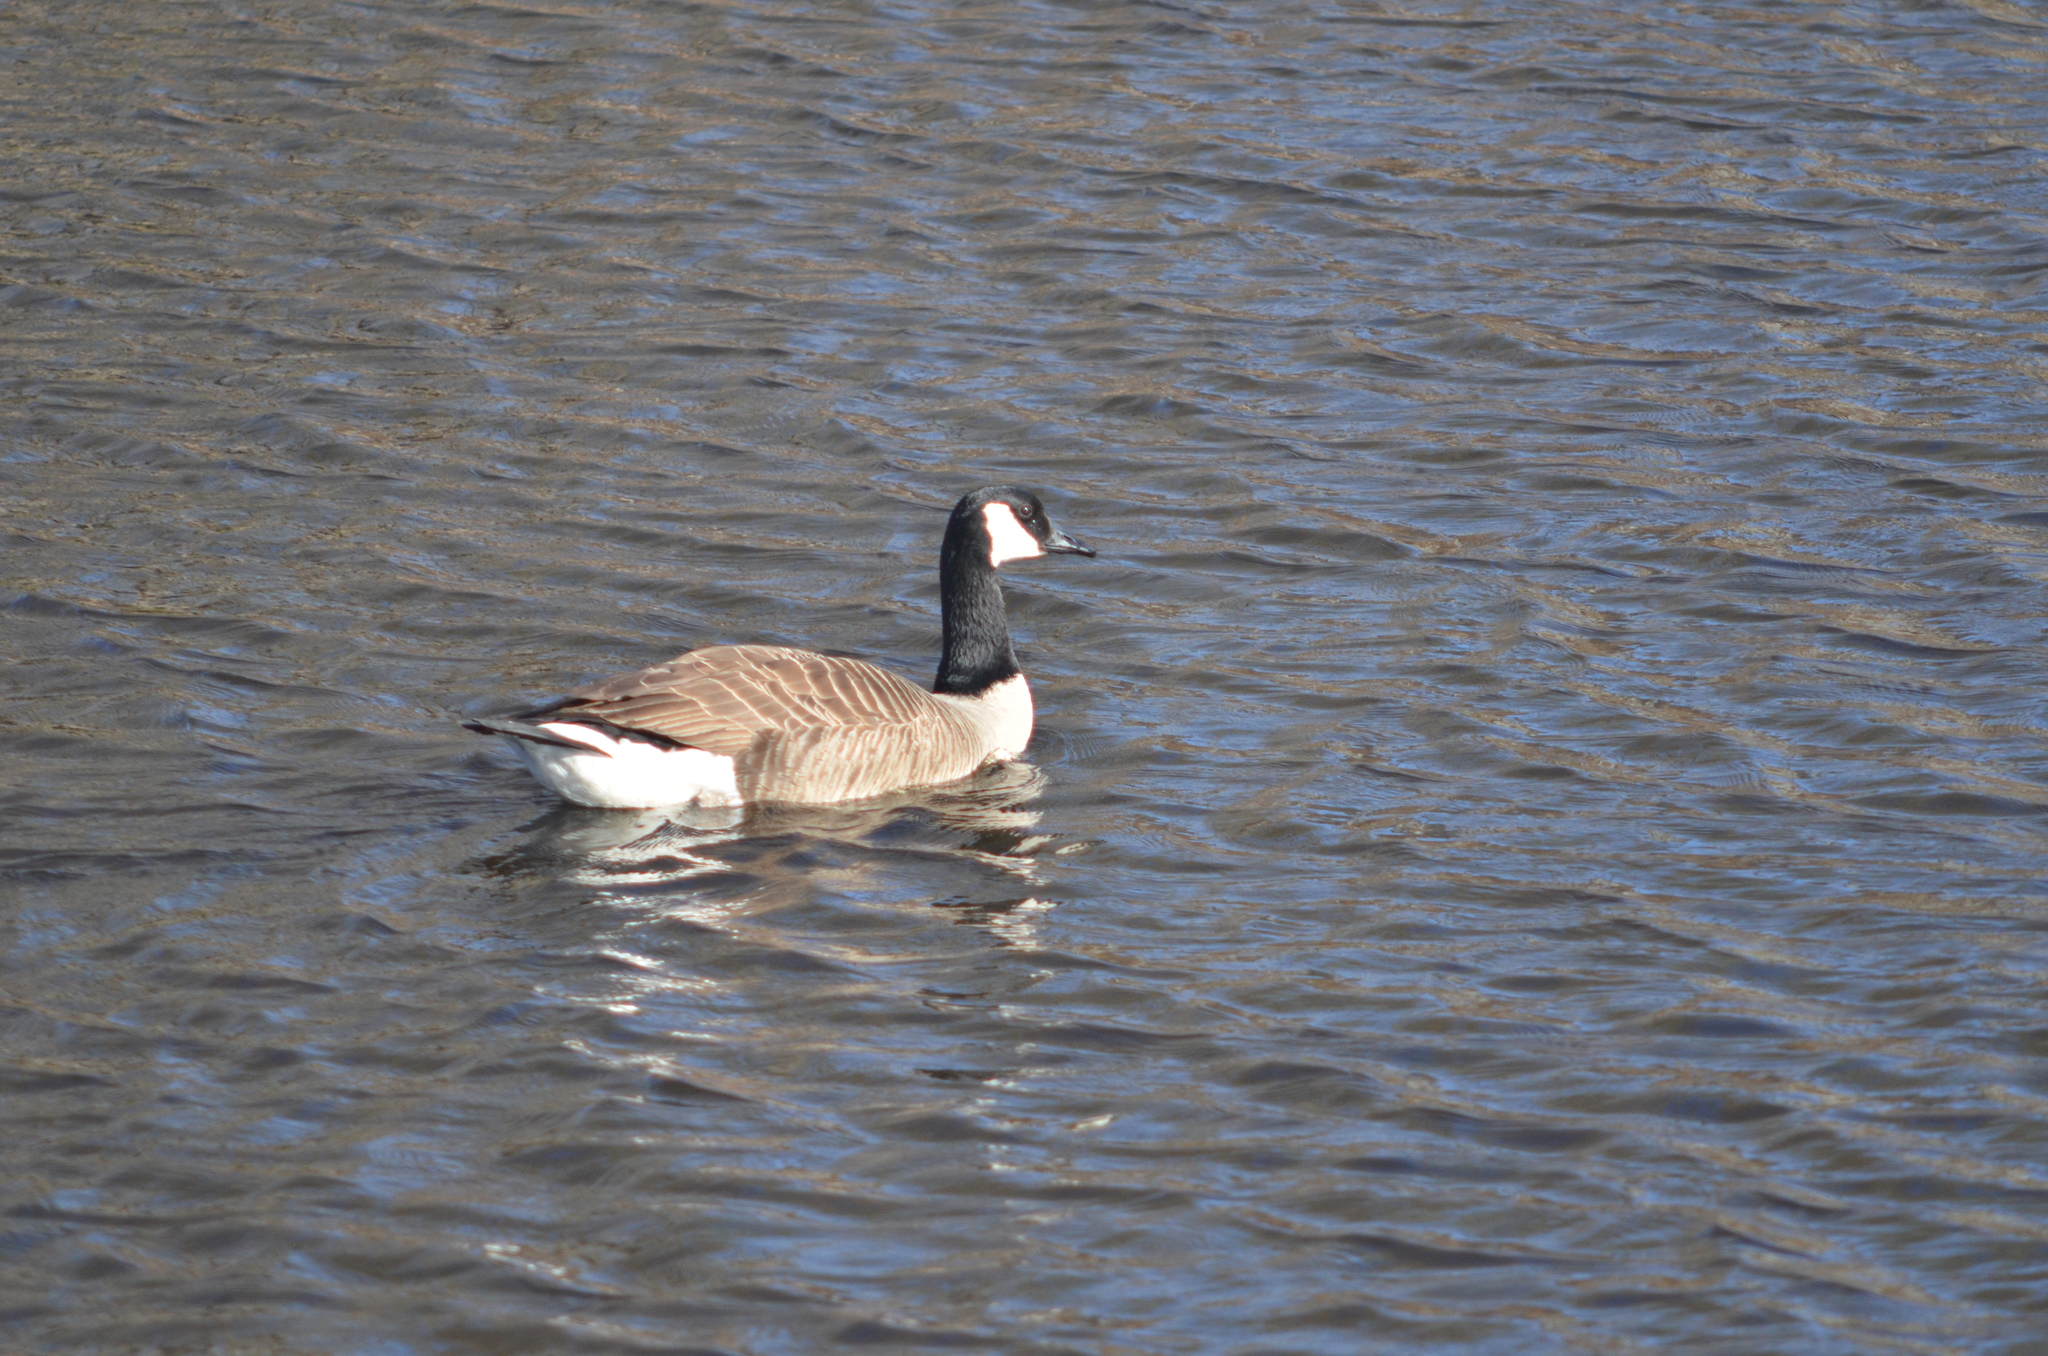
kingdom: Animalia
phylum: Chordata
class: Aves
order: Anseriformes
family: Anatidae
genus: Branta
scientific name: Branta canadensis
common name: Canada goose
